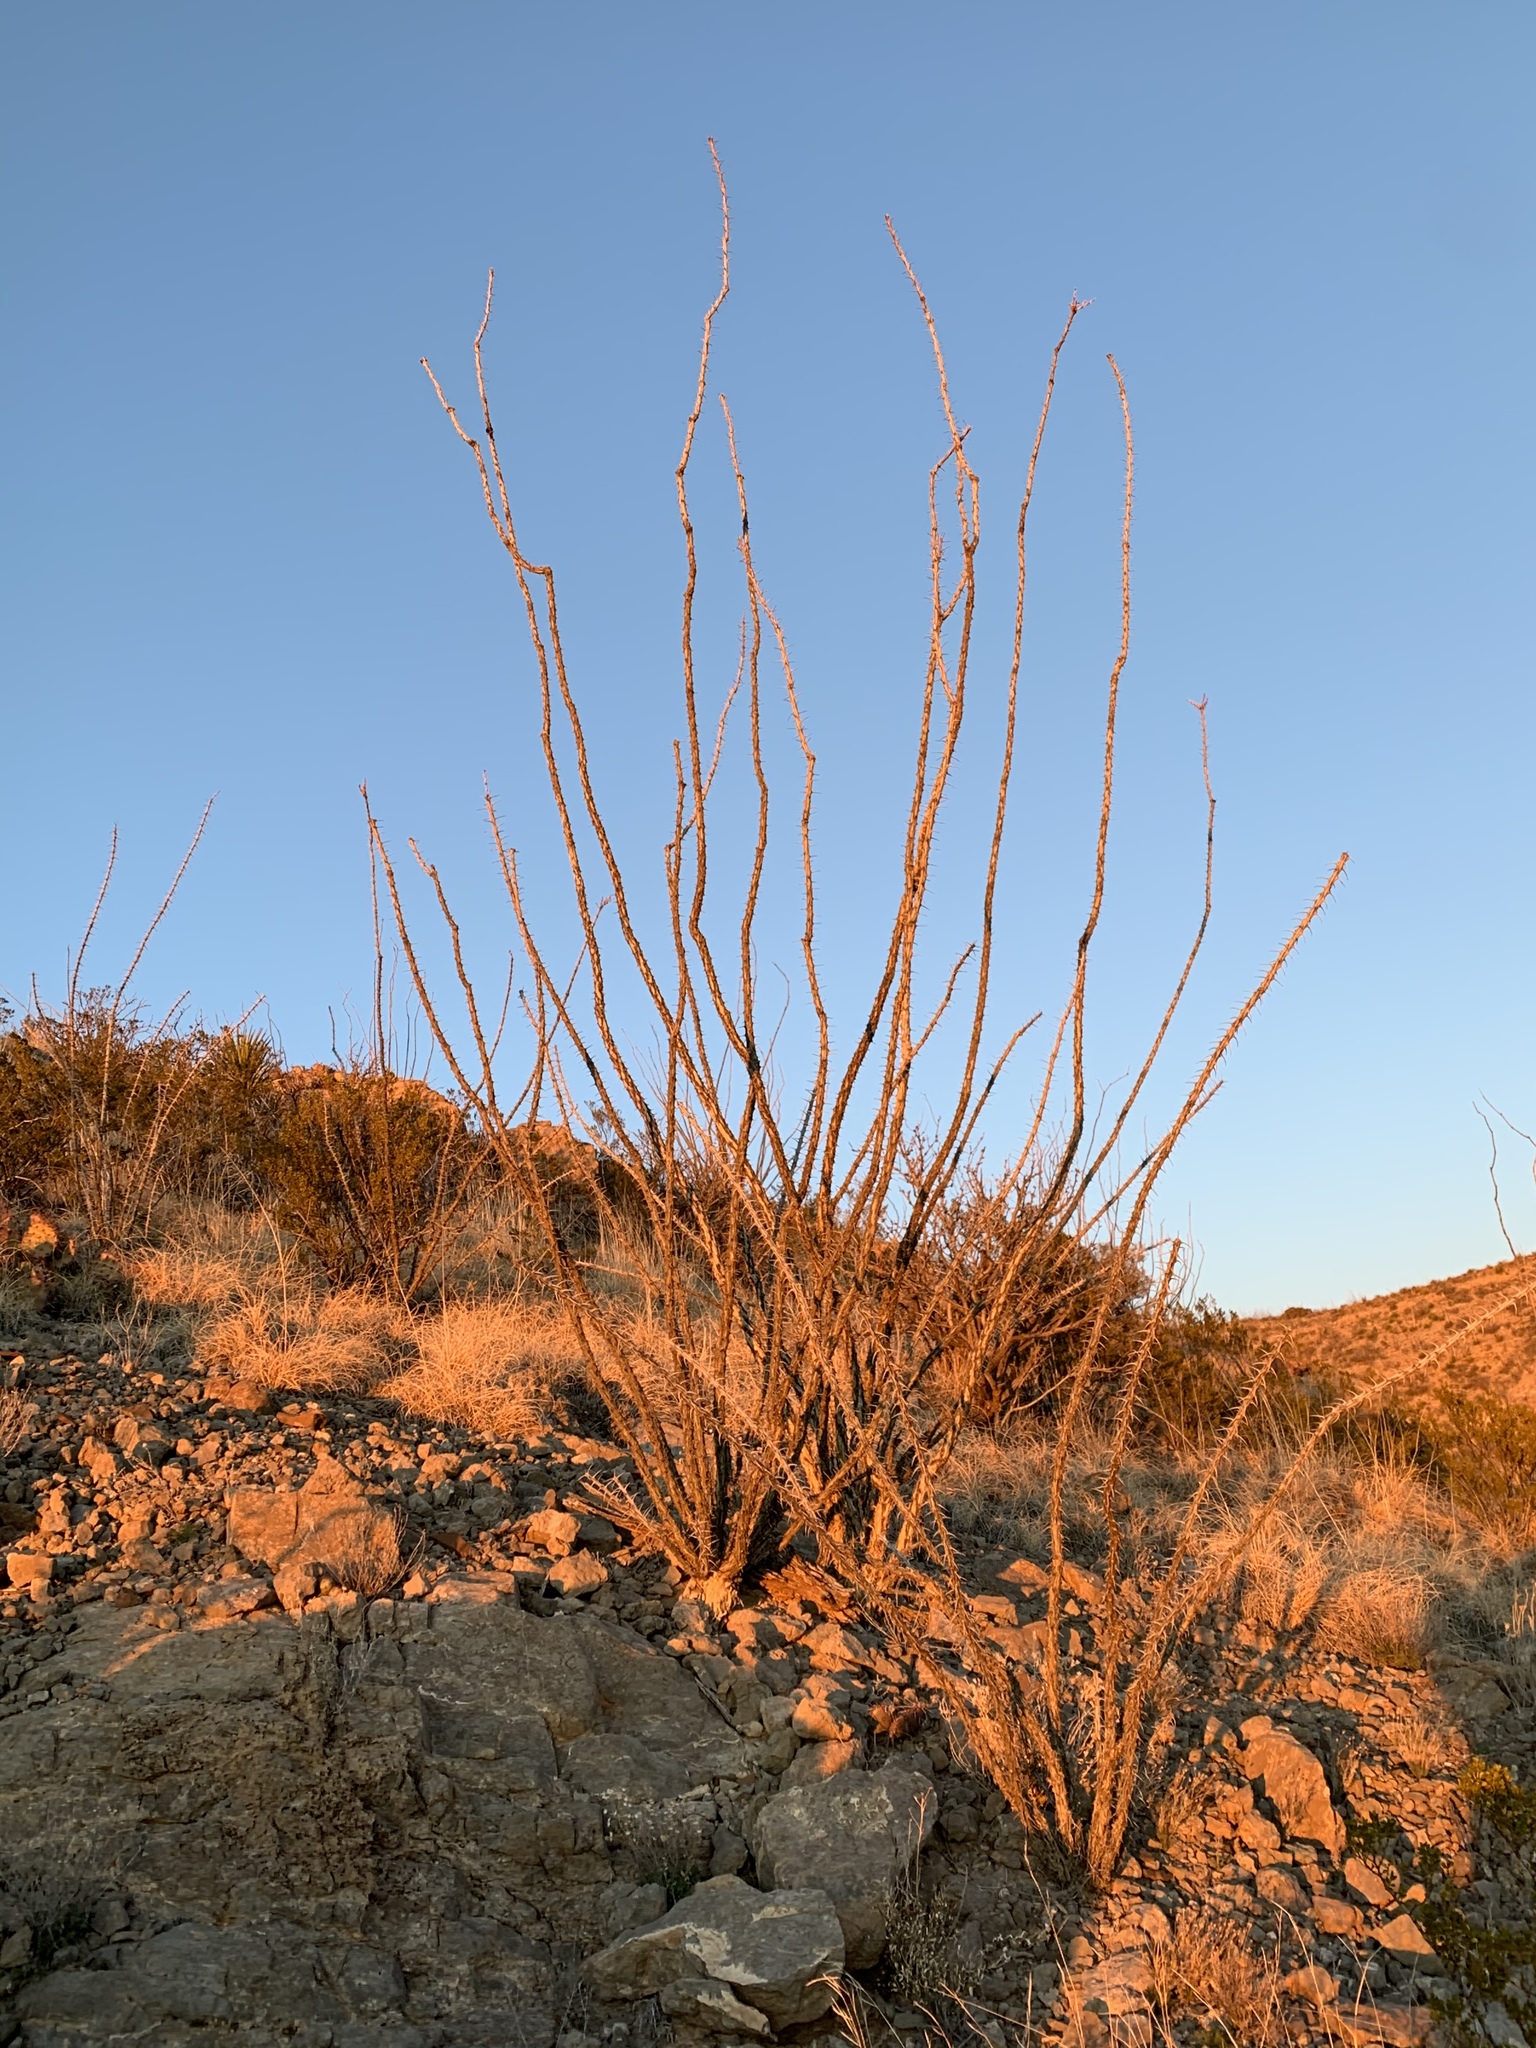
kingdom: Plantae
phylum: Tracheophyta
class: Magnoliopsida
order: Ericales
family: Fouquieriaceae
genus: Fouquieria
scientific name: Fouquieria splendens
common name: Vine-cactus
